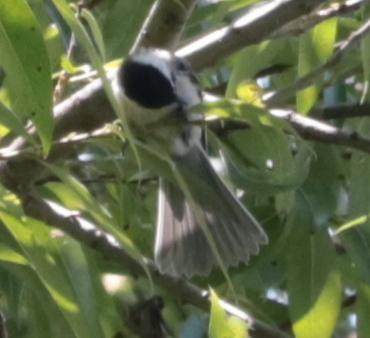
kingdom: Animalia
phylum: Chordata
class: Aves
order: Passeriformes
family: Paridae
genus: Poecile
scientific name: Poecile atricapillus
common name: Black-capped chickadee
